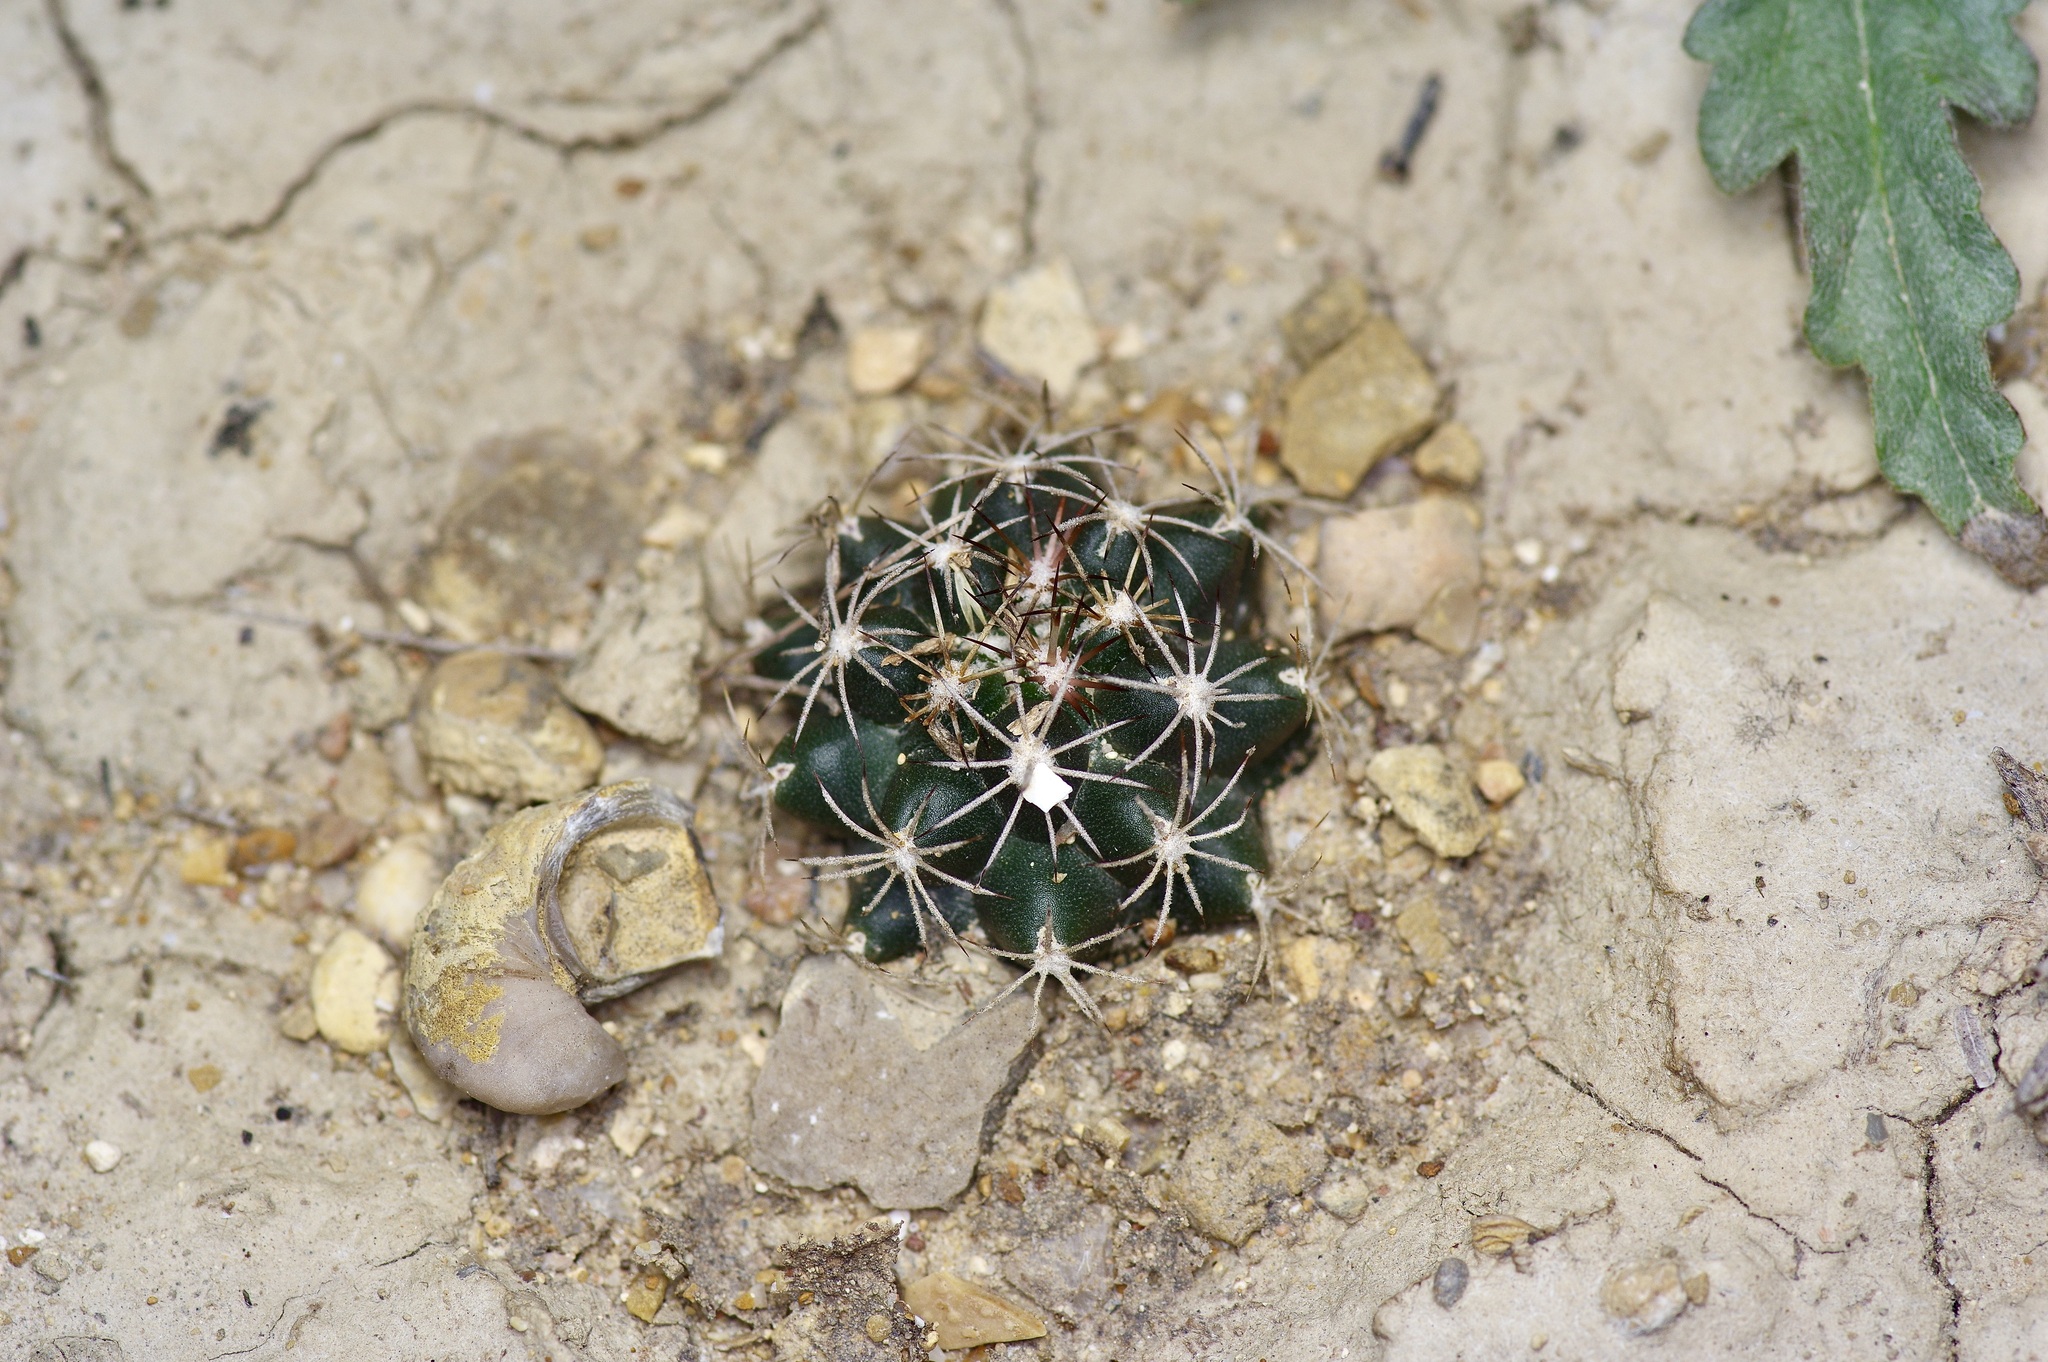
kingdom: Plantae
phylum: Tracheophyta
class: Magnoliopsida
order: Caryophyllales
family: Cactaceae
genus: Sclerocactus
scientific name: Sclerocactus brevihamatus
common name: Engelmann's fishhook cactus
